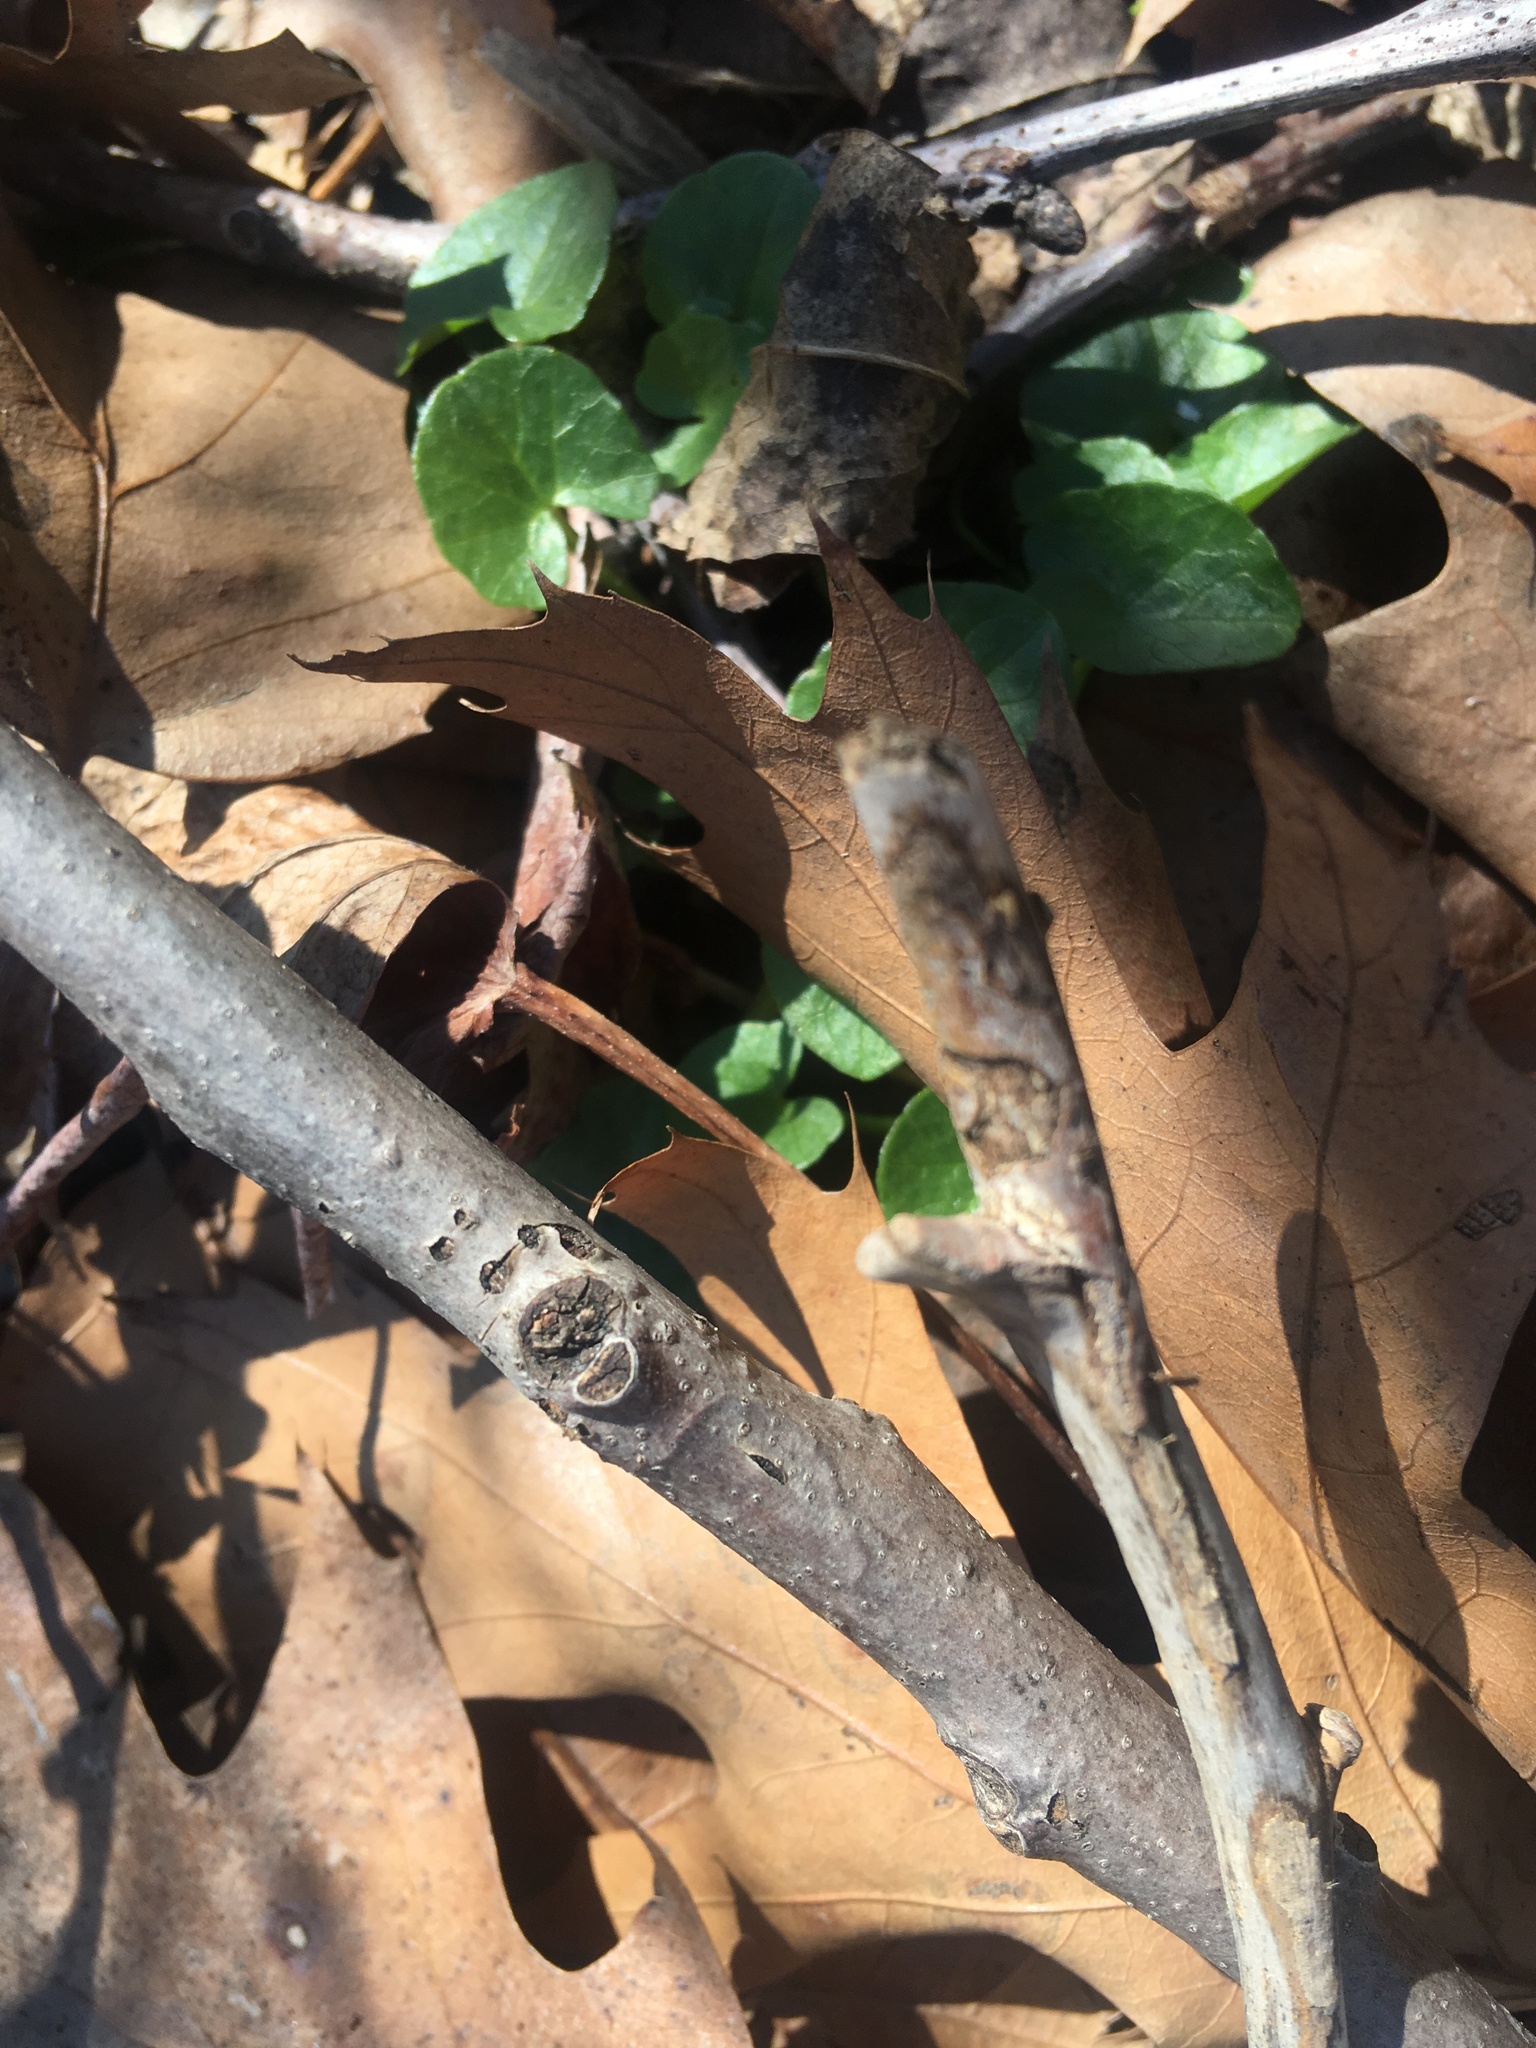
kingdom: Plantae
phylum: Tracheophyta
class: Magnoliopsida
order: Ranunculales
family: Ranunculaceae
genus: Ficaria
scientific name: Ficaria verna
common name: Lesser celandine
